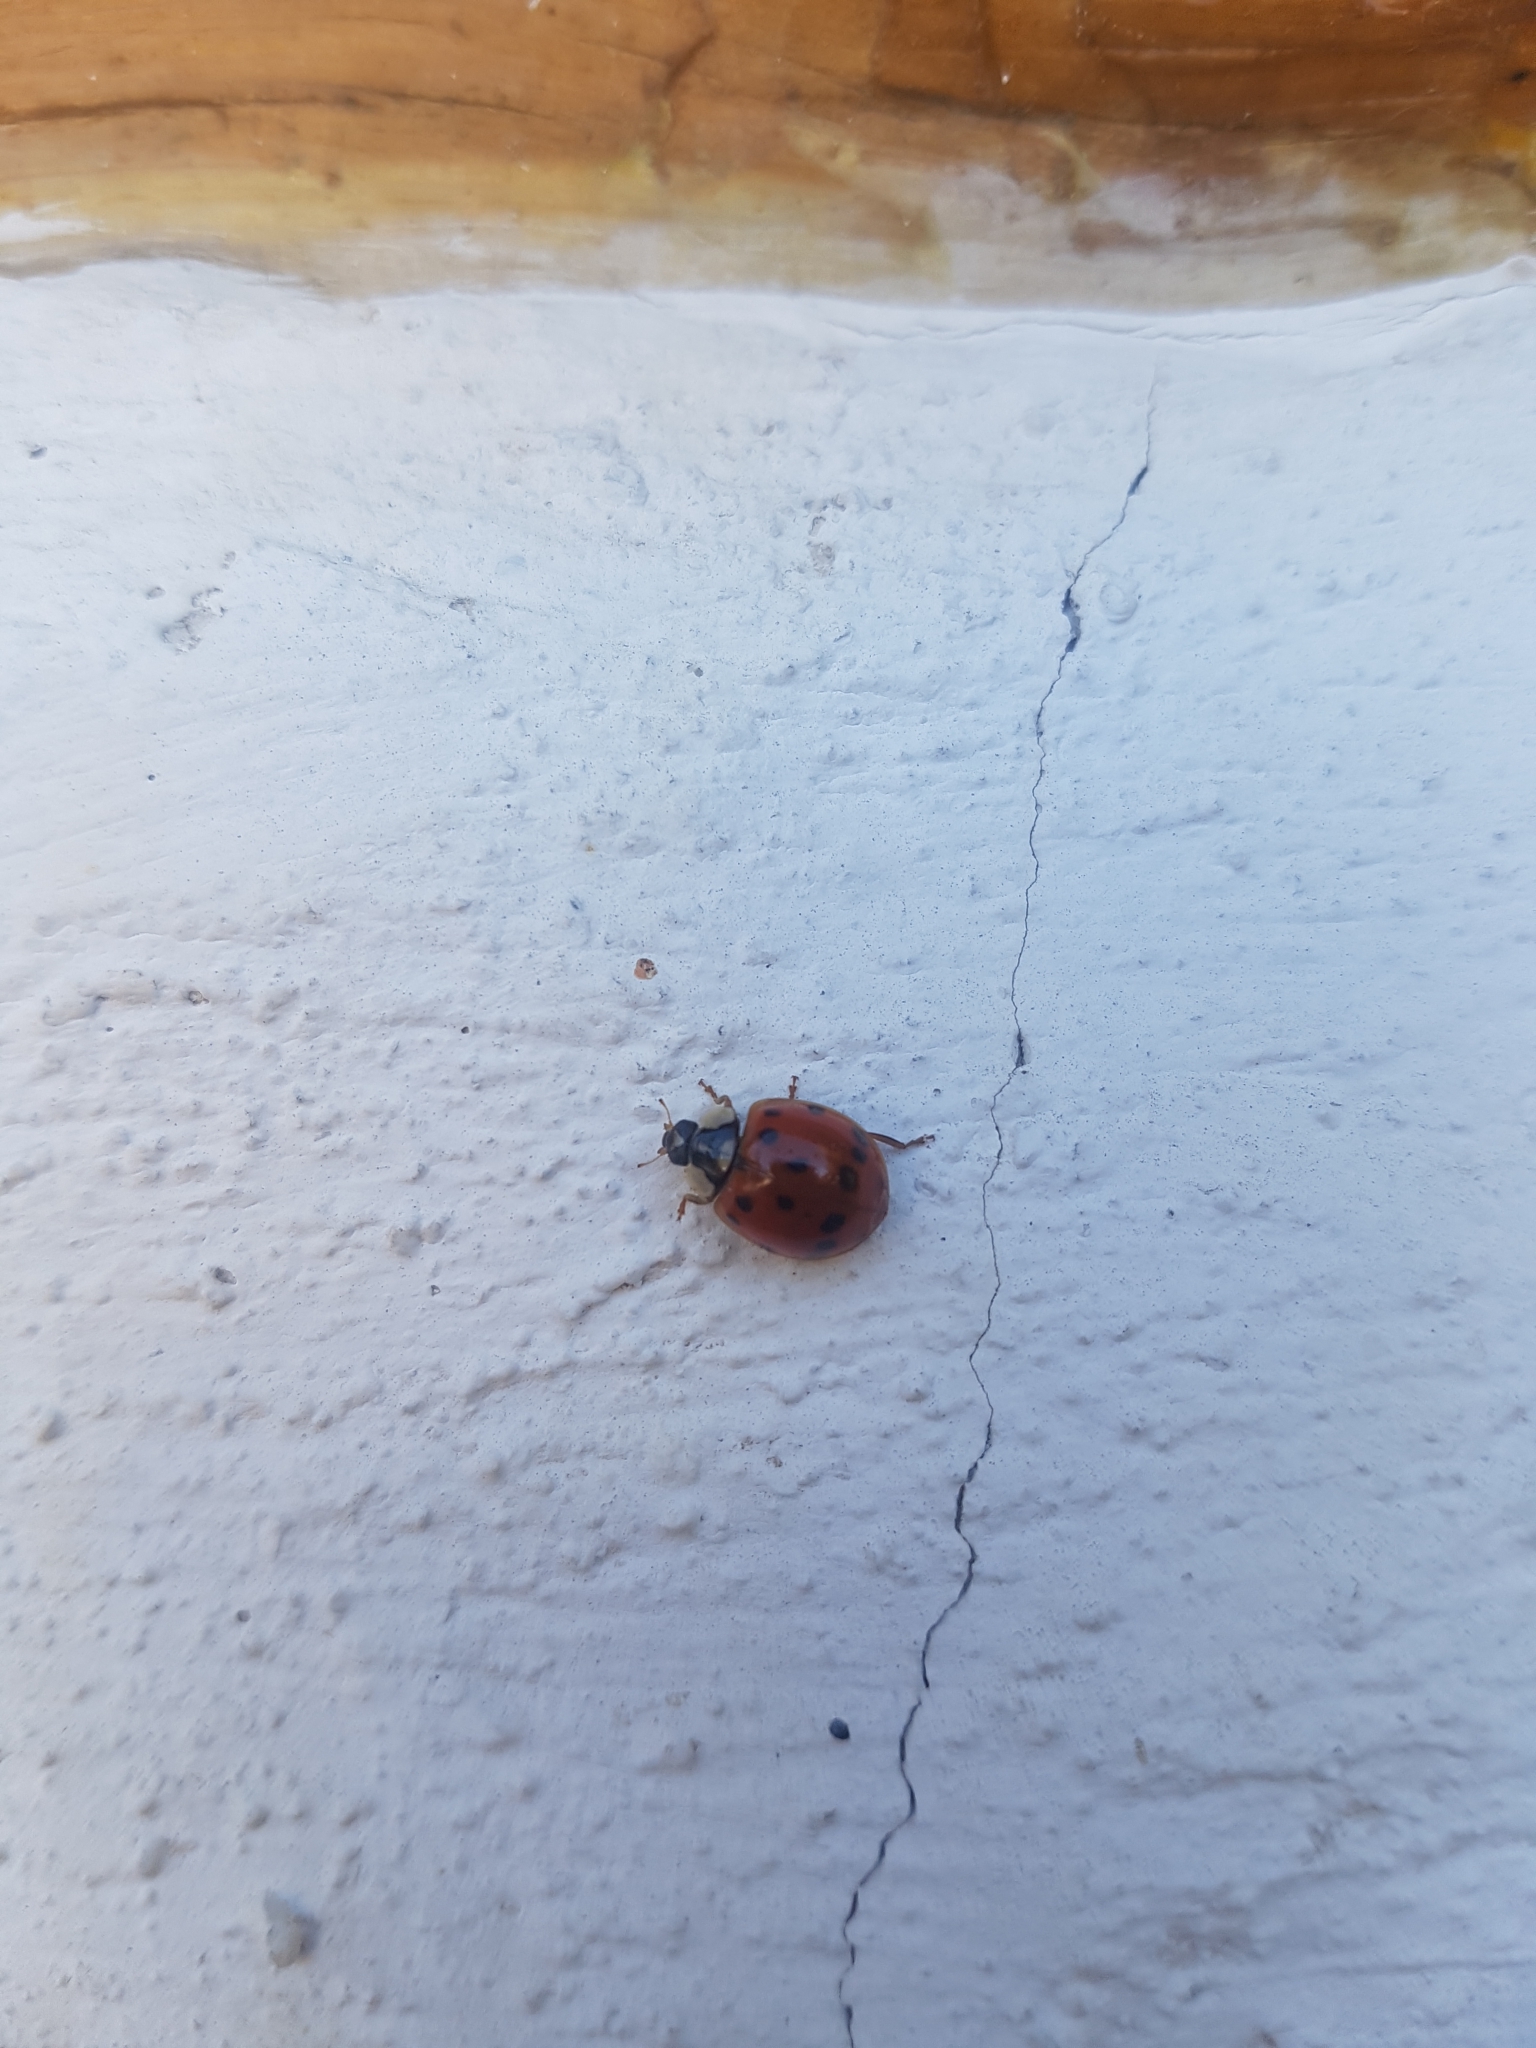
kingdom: Animalia
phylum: Arthropoda
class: Insecta
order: Coleoptera
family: Coccinellidae
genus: Harmonia
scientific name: Harmonia axyridis
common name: Harlequin ladybird
